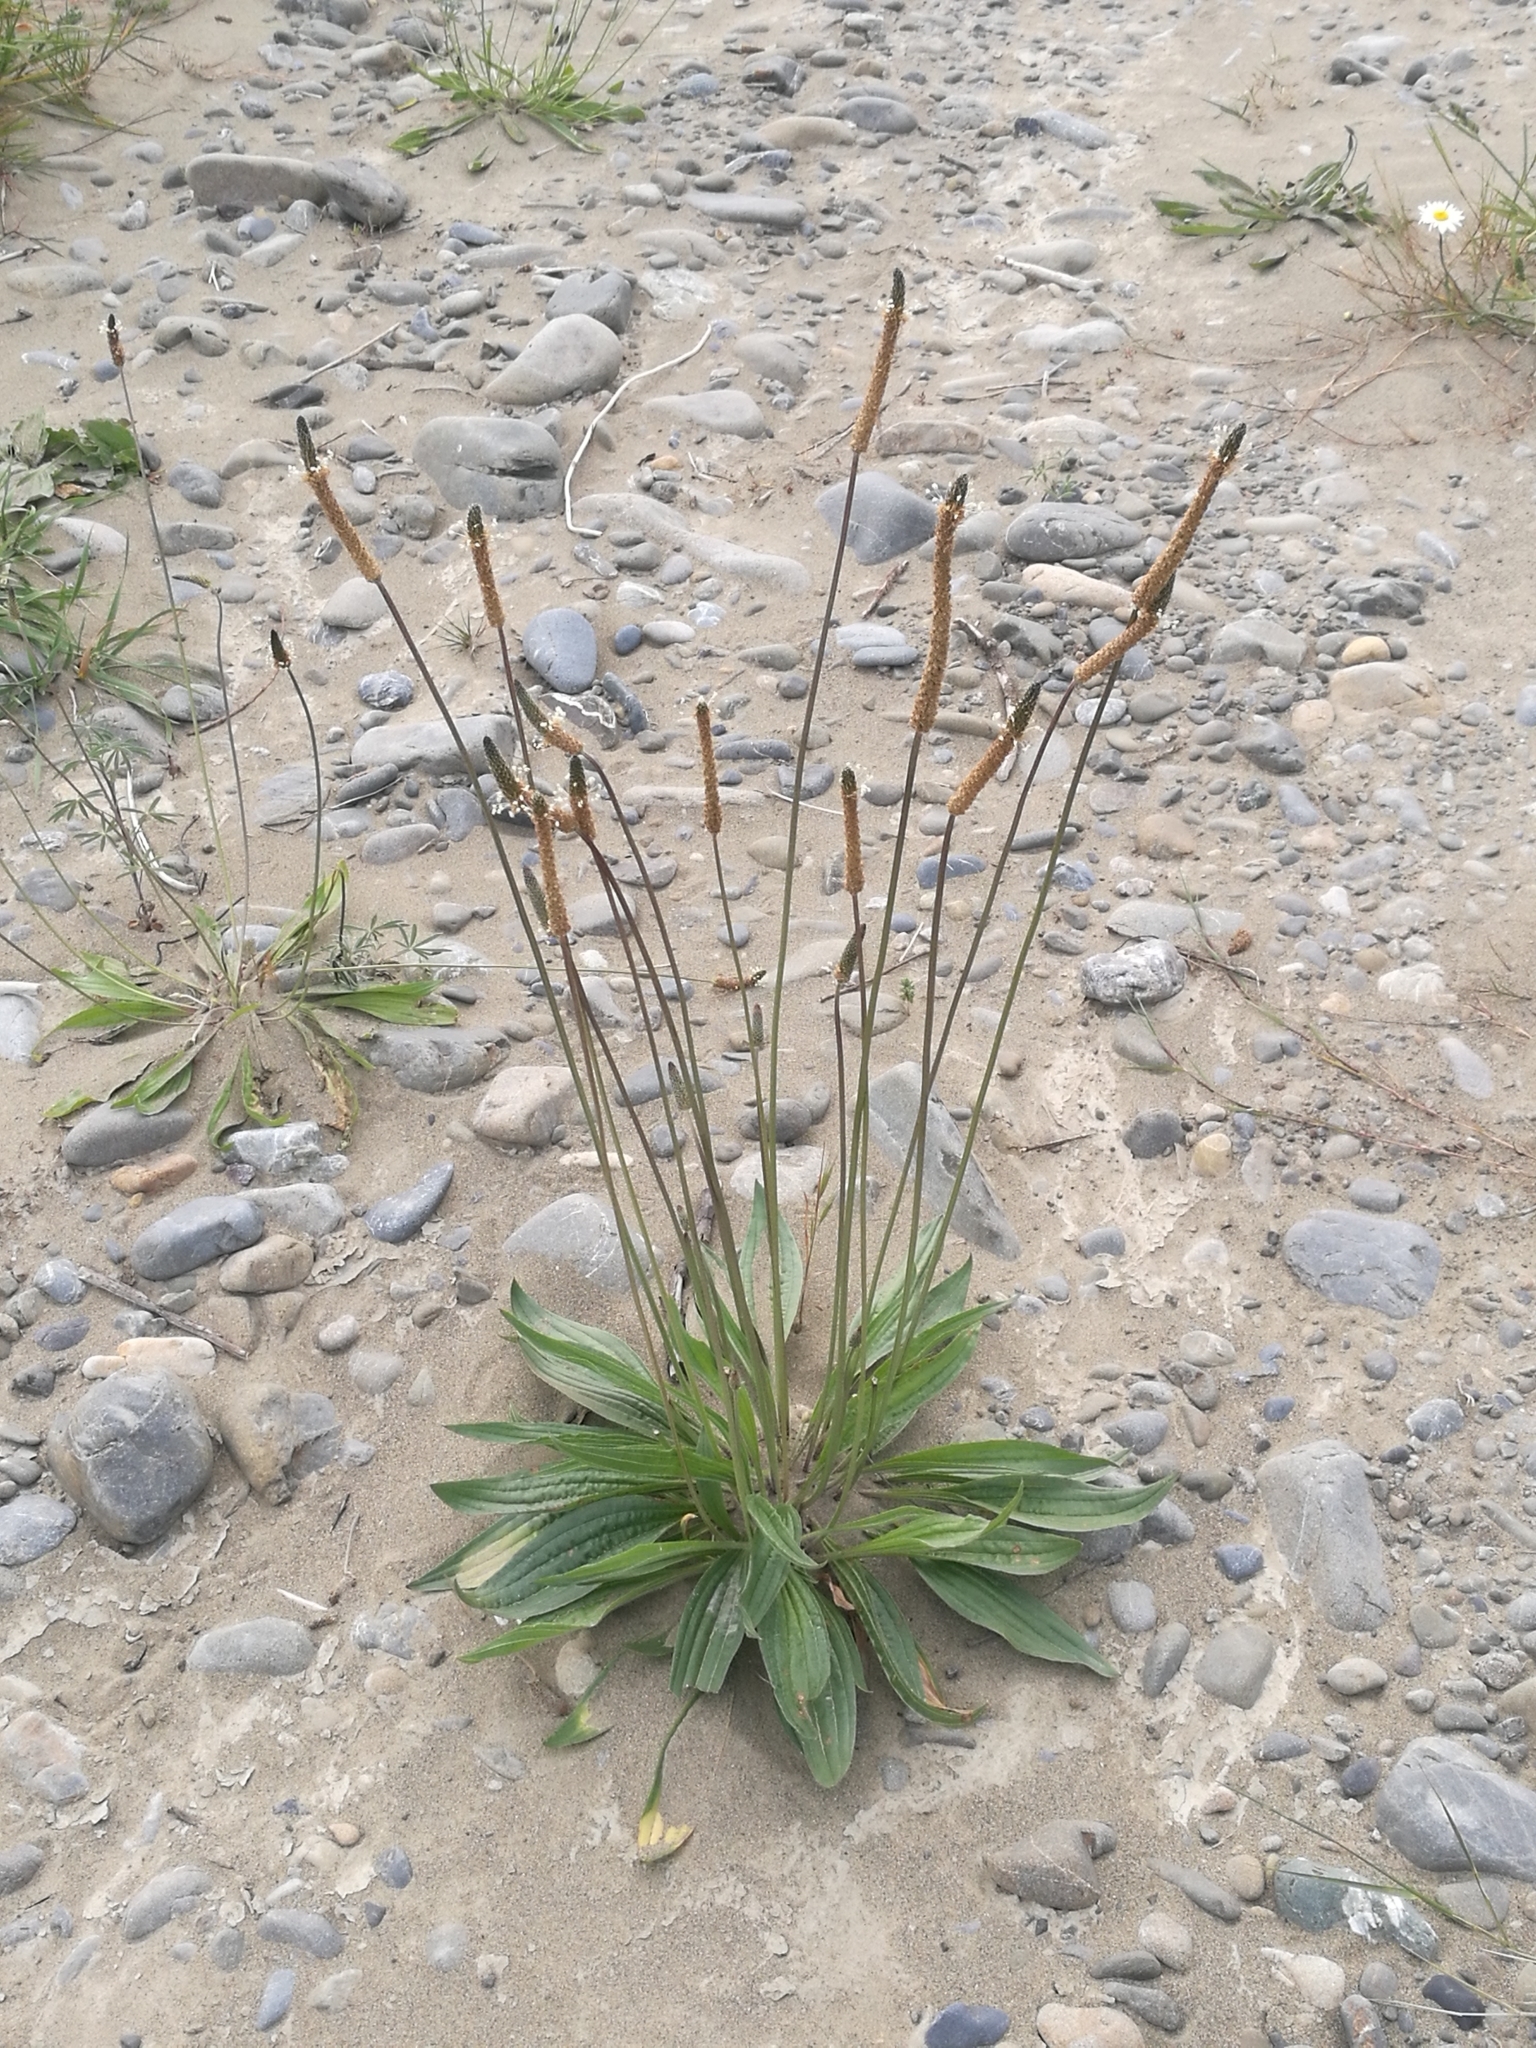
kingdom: Plantae
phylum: Tracheophyta
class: Magnoliopsida
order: Lamiales
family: Plantaginaceae
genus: Plantago
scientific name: Plantago lanceolata
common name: Ribwort plantain
